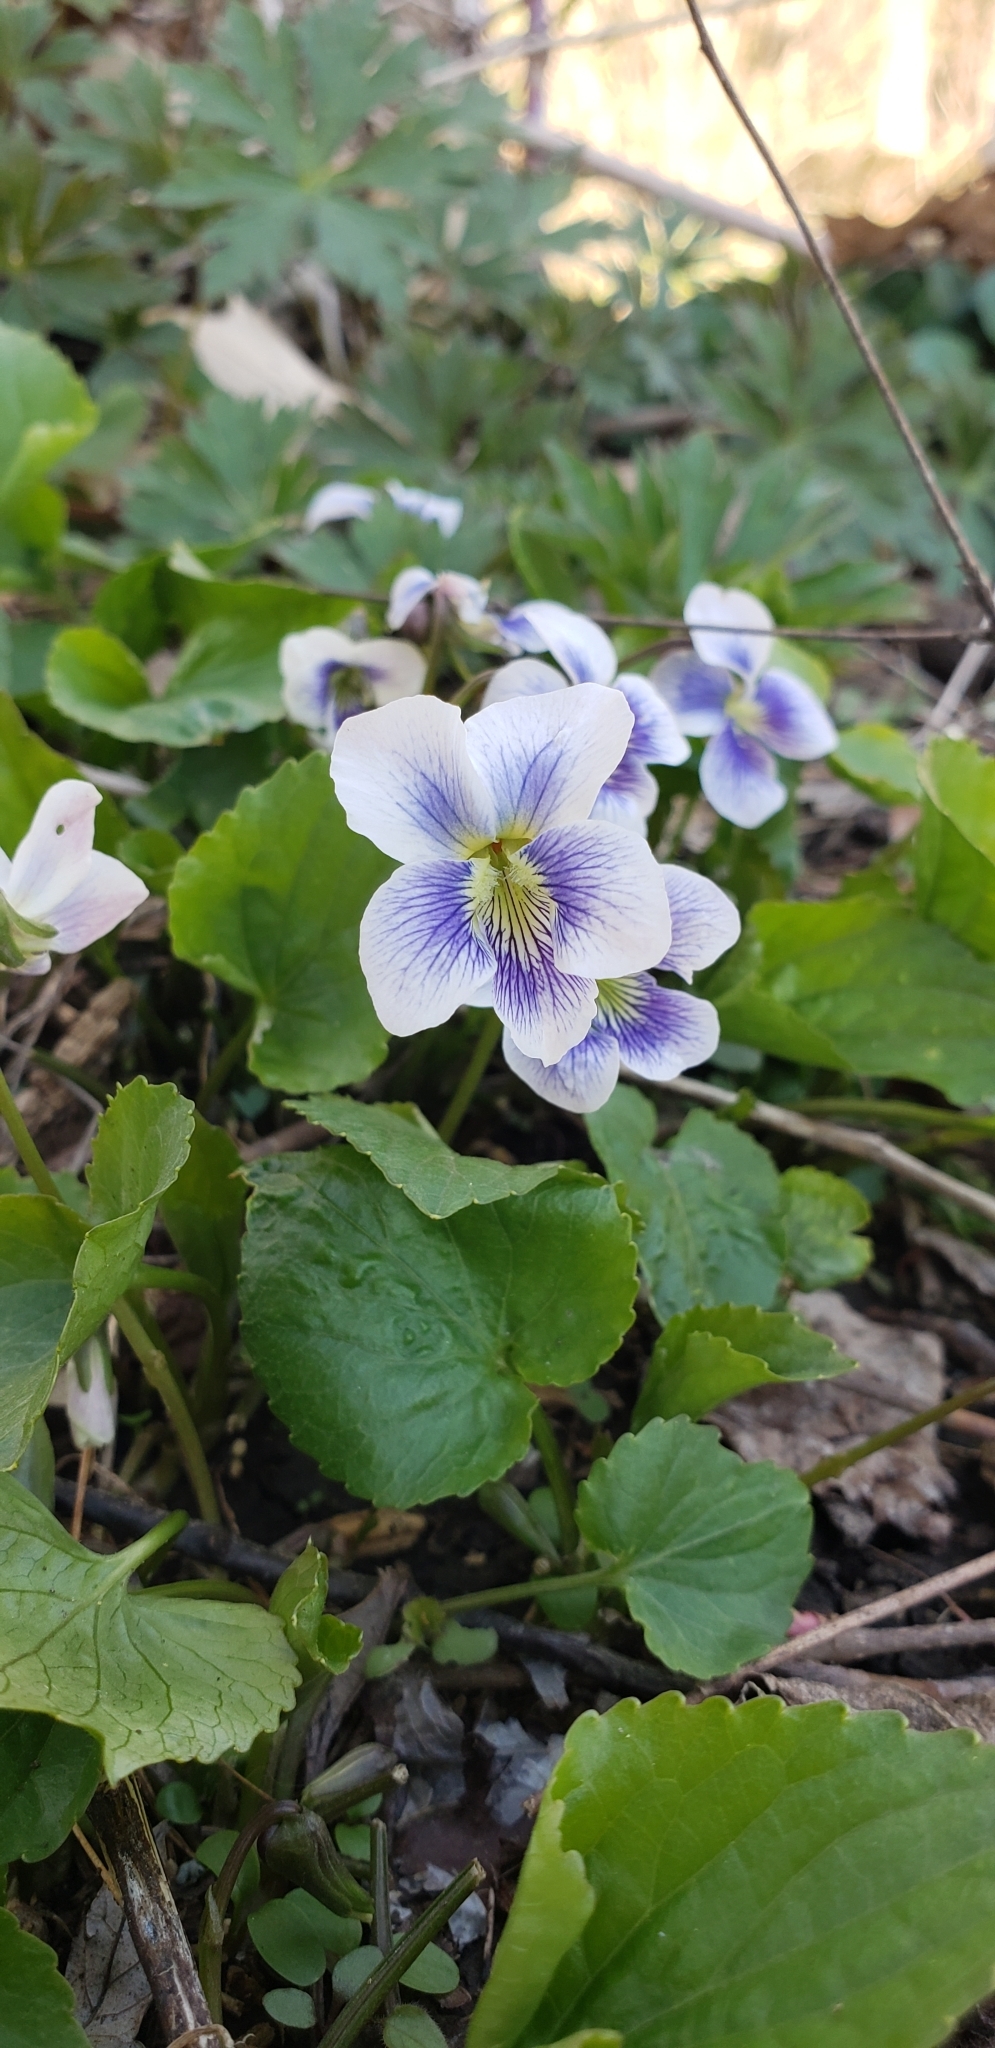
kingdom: Plantae
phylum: Tracheophyta
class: Magnoliopsida
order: Malpighiales
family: Violaceae
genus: Viola
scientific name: Viola sororia
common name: Dooryard violet
